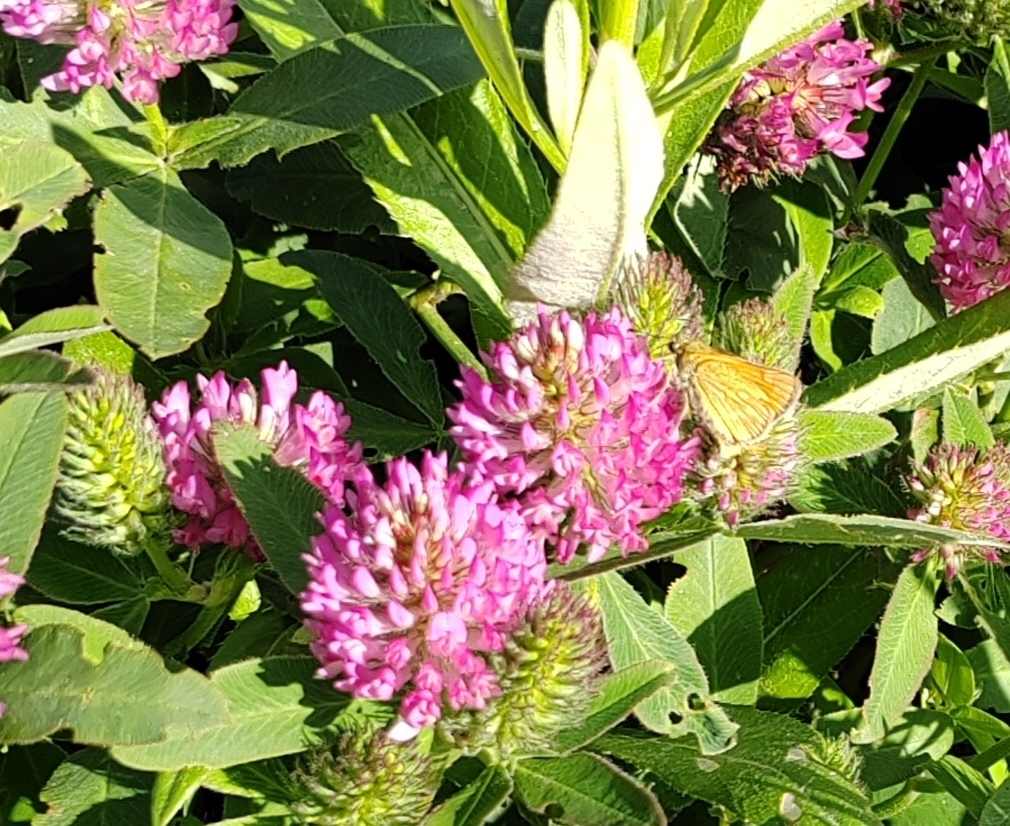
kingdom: Animalia
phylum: Arthropoda
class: Insecta
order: Lepidoptera
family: Hesperiidae
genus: Ochlodes
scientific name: Ochlodes venata
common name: Large skipper
